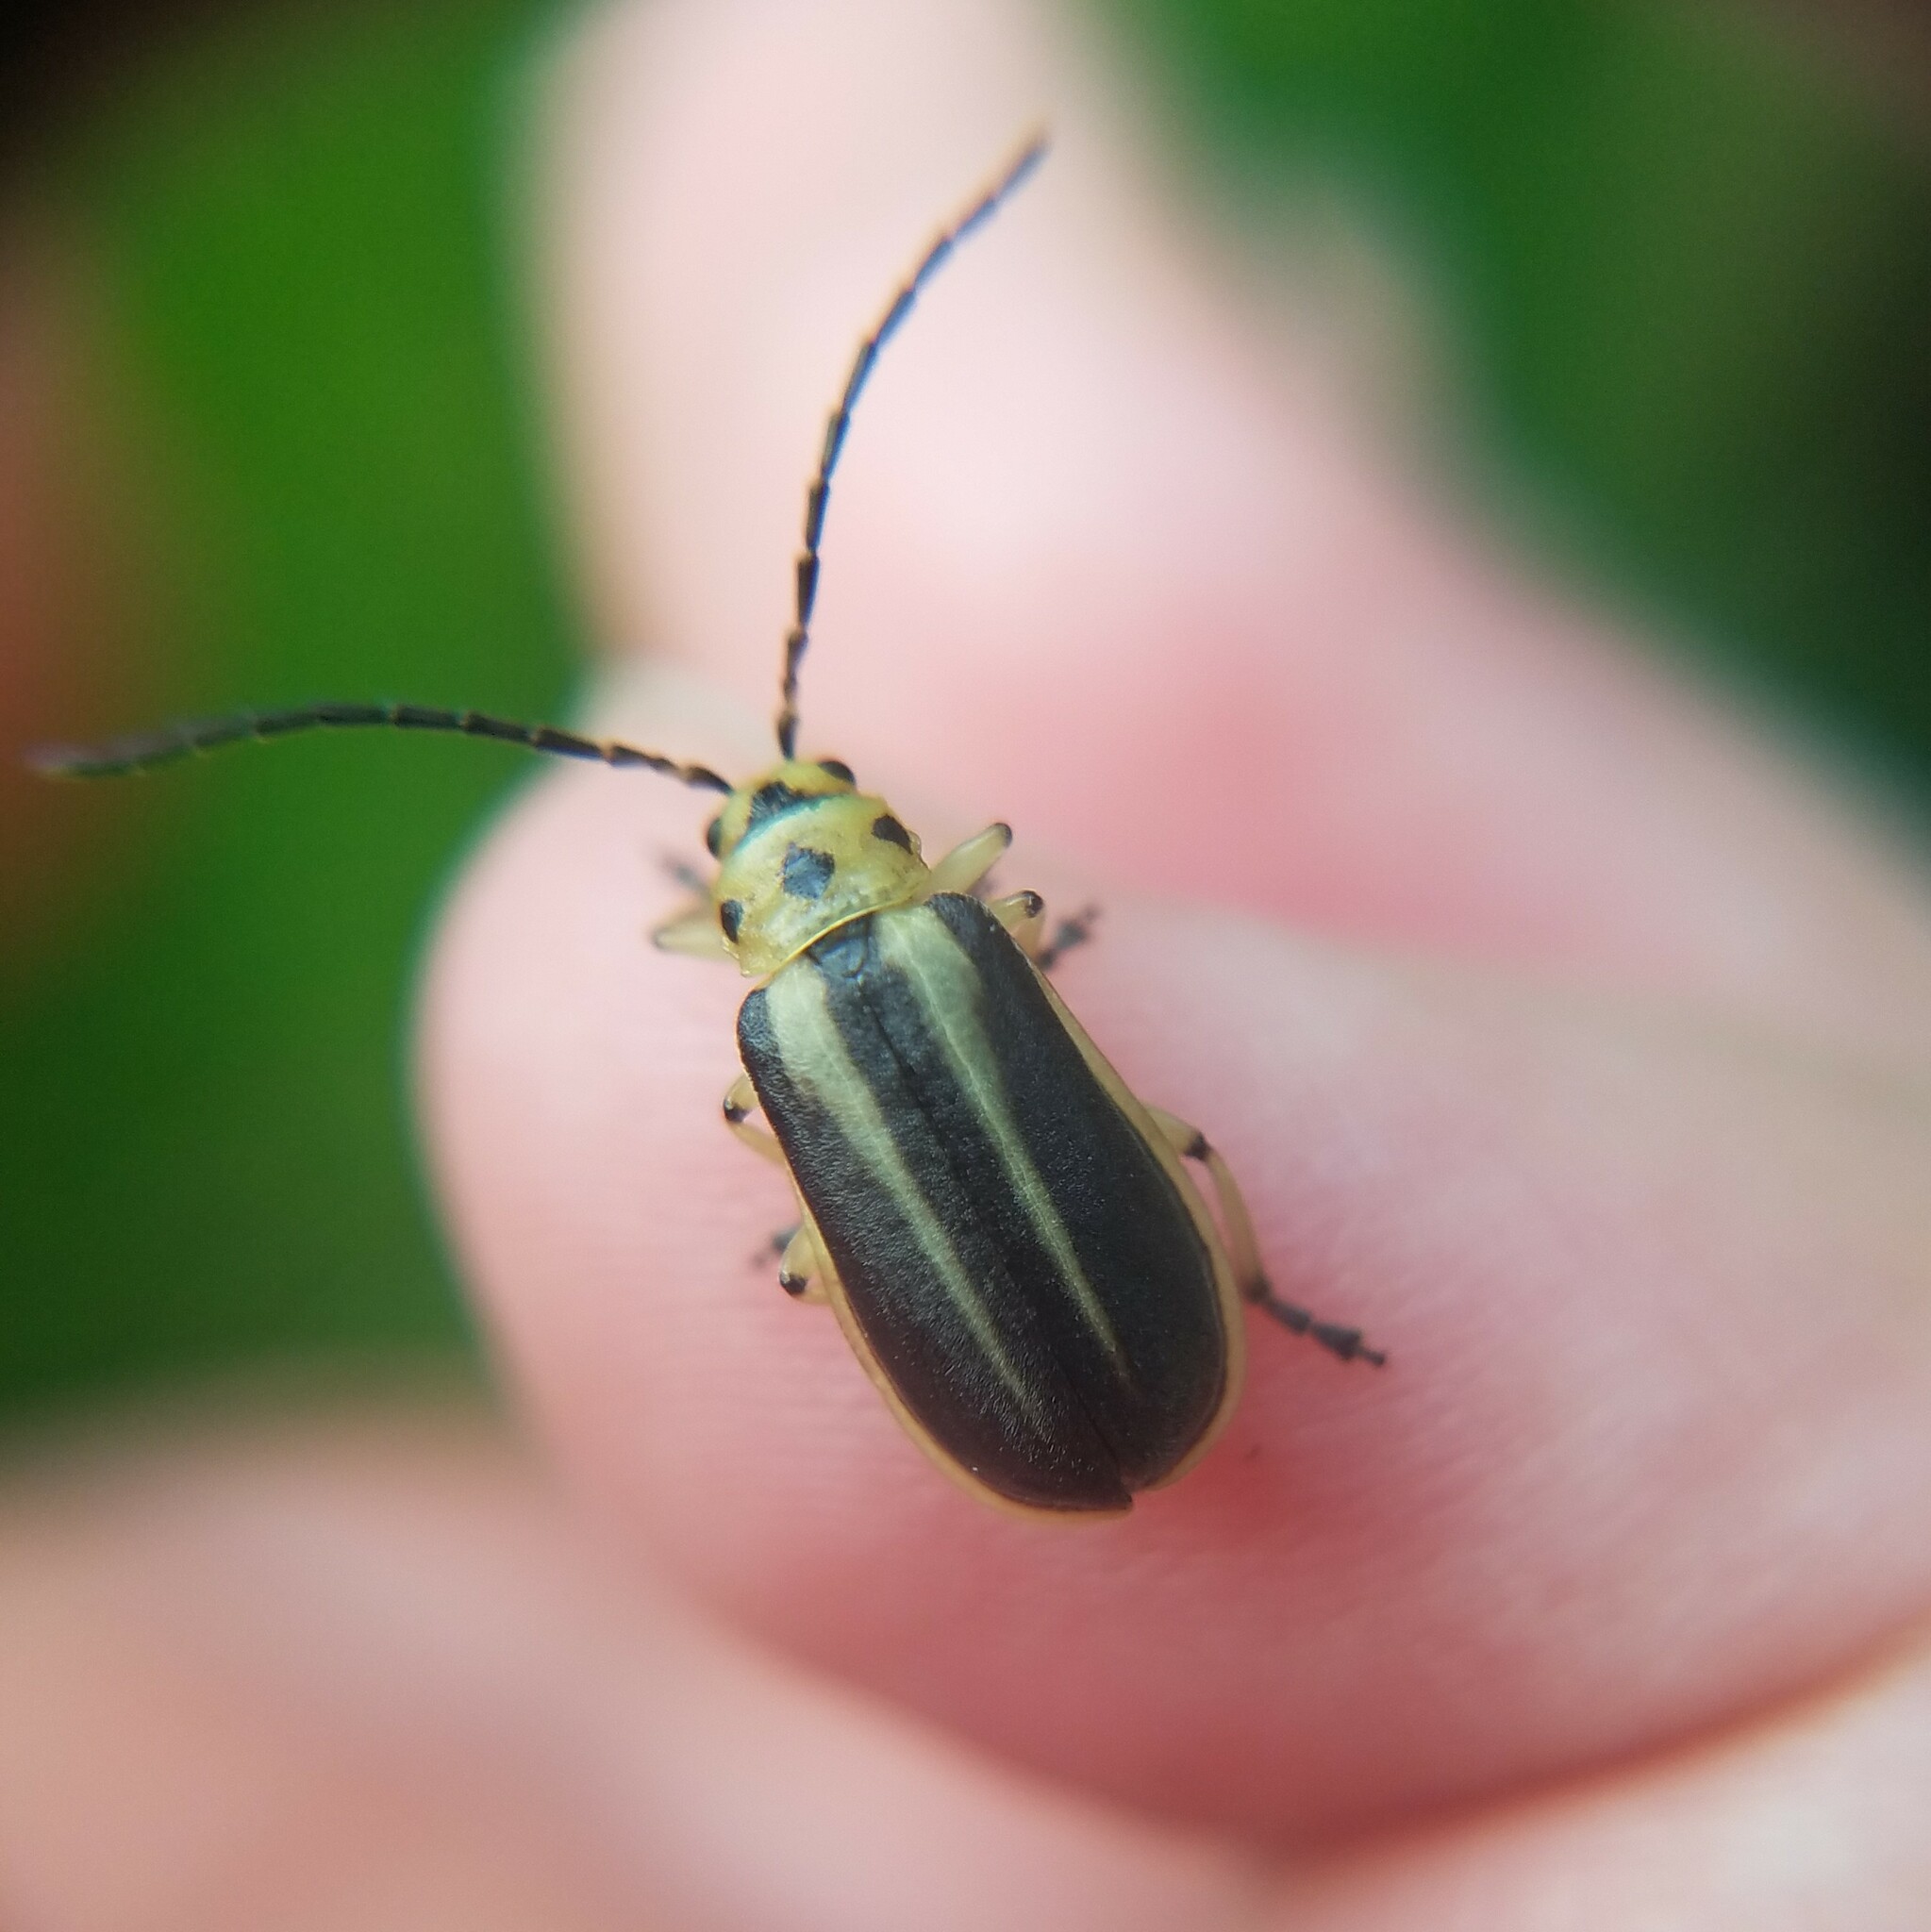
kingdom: Animalia
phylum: Arthropoda
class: Insecta
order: Coleoptera
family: Chrysomelidae
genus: Trirhabda
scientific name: Trirhabda bacharidis
